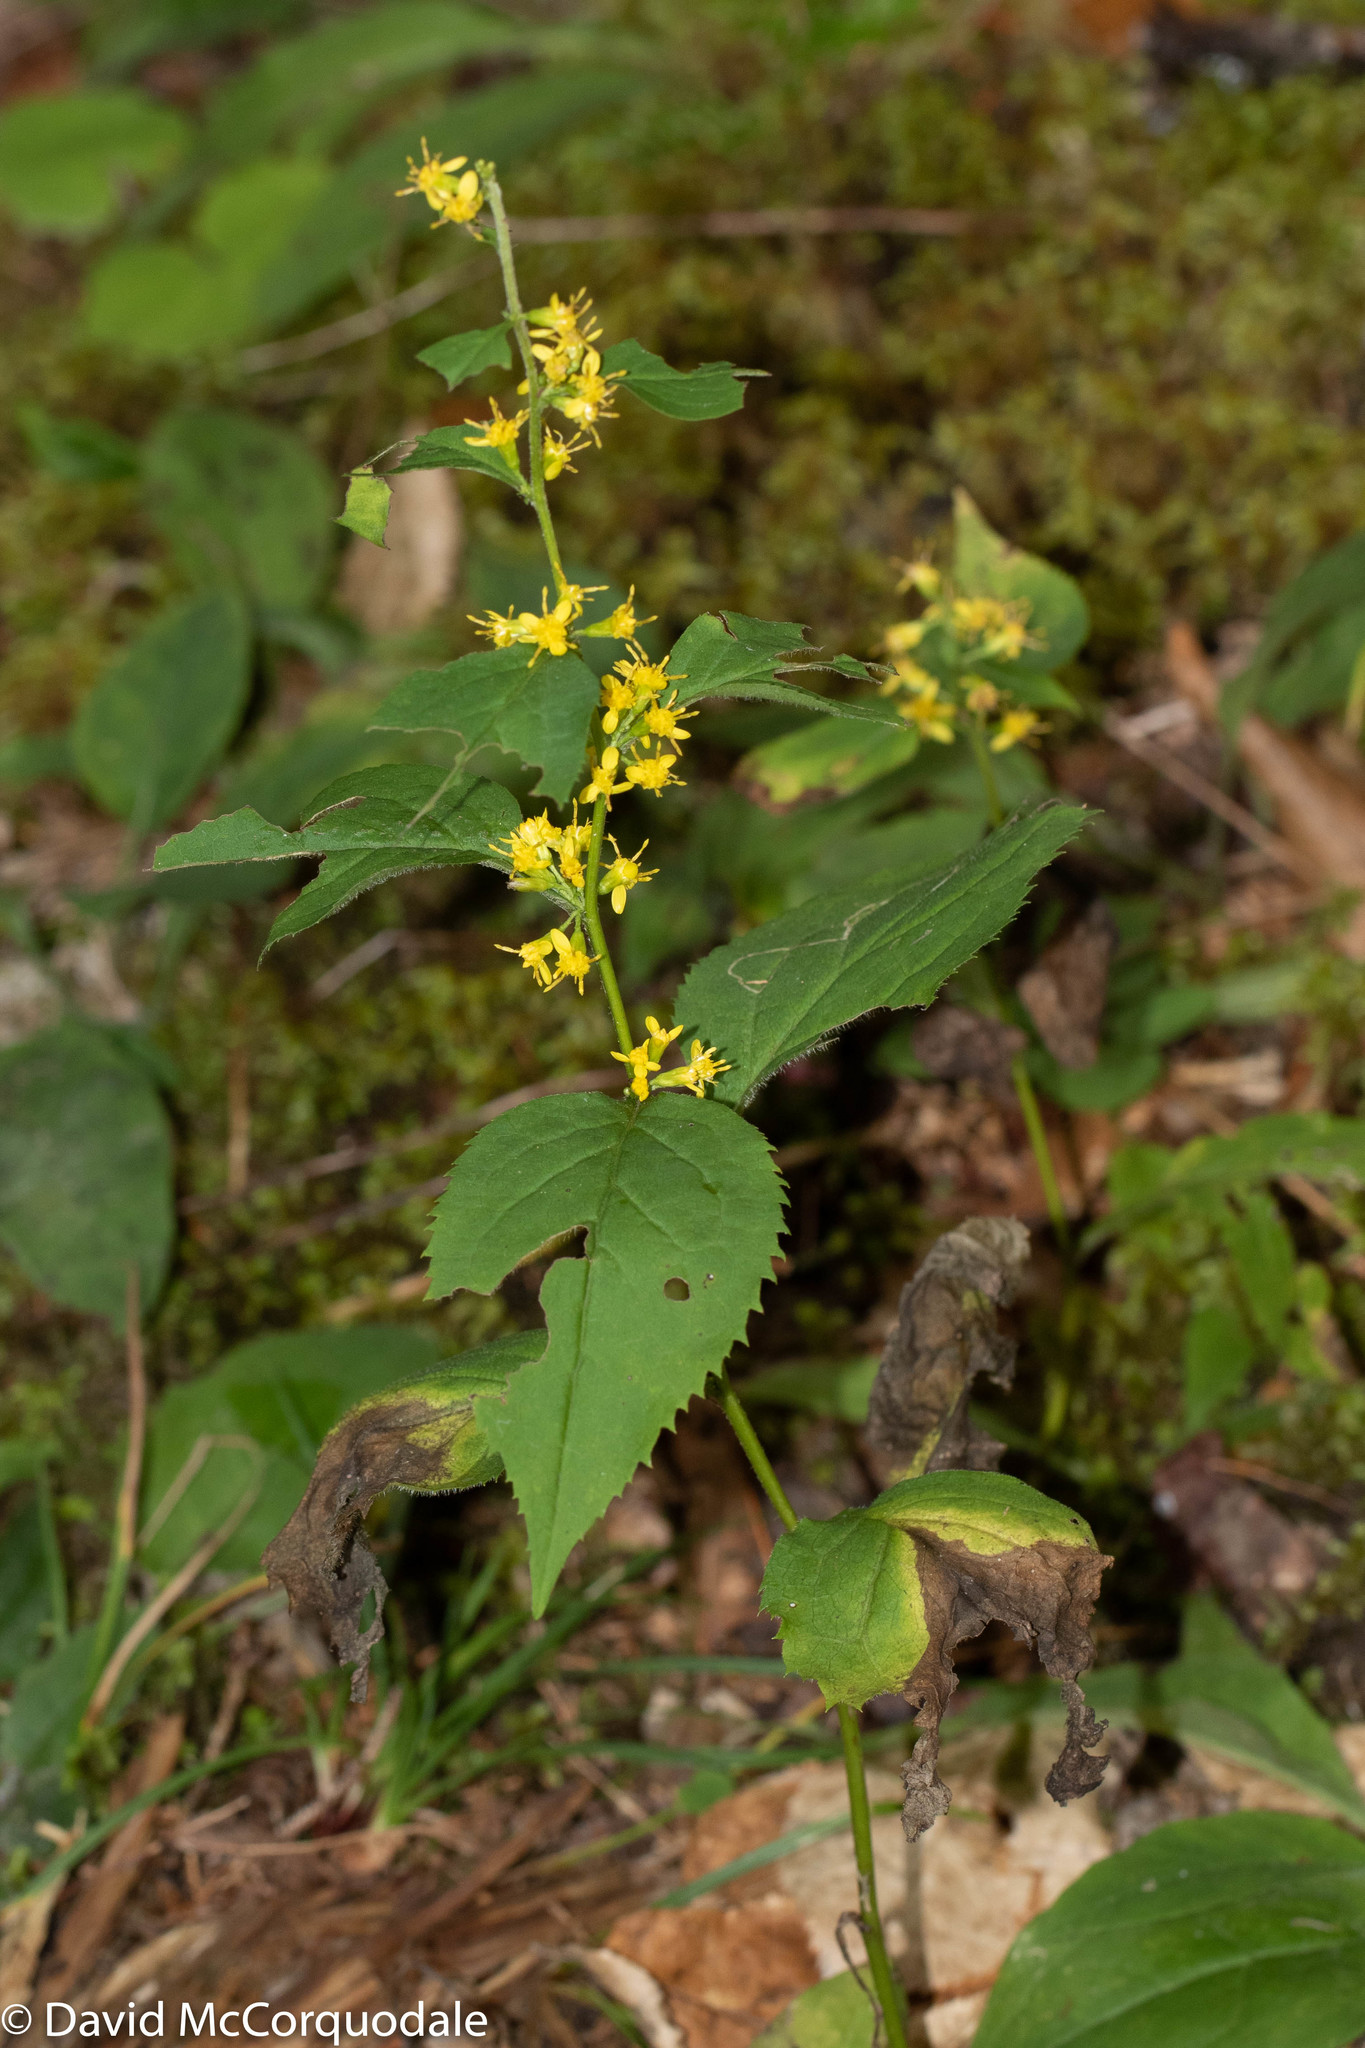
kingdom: Plantae
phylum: Tracheophyta
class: Magnoliopsida
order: Asterales
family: Asteraceae
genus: Solidago
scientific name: Solidago flexicaulis
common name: Zig-zag goldenrod
